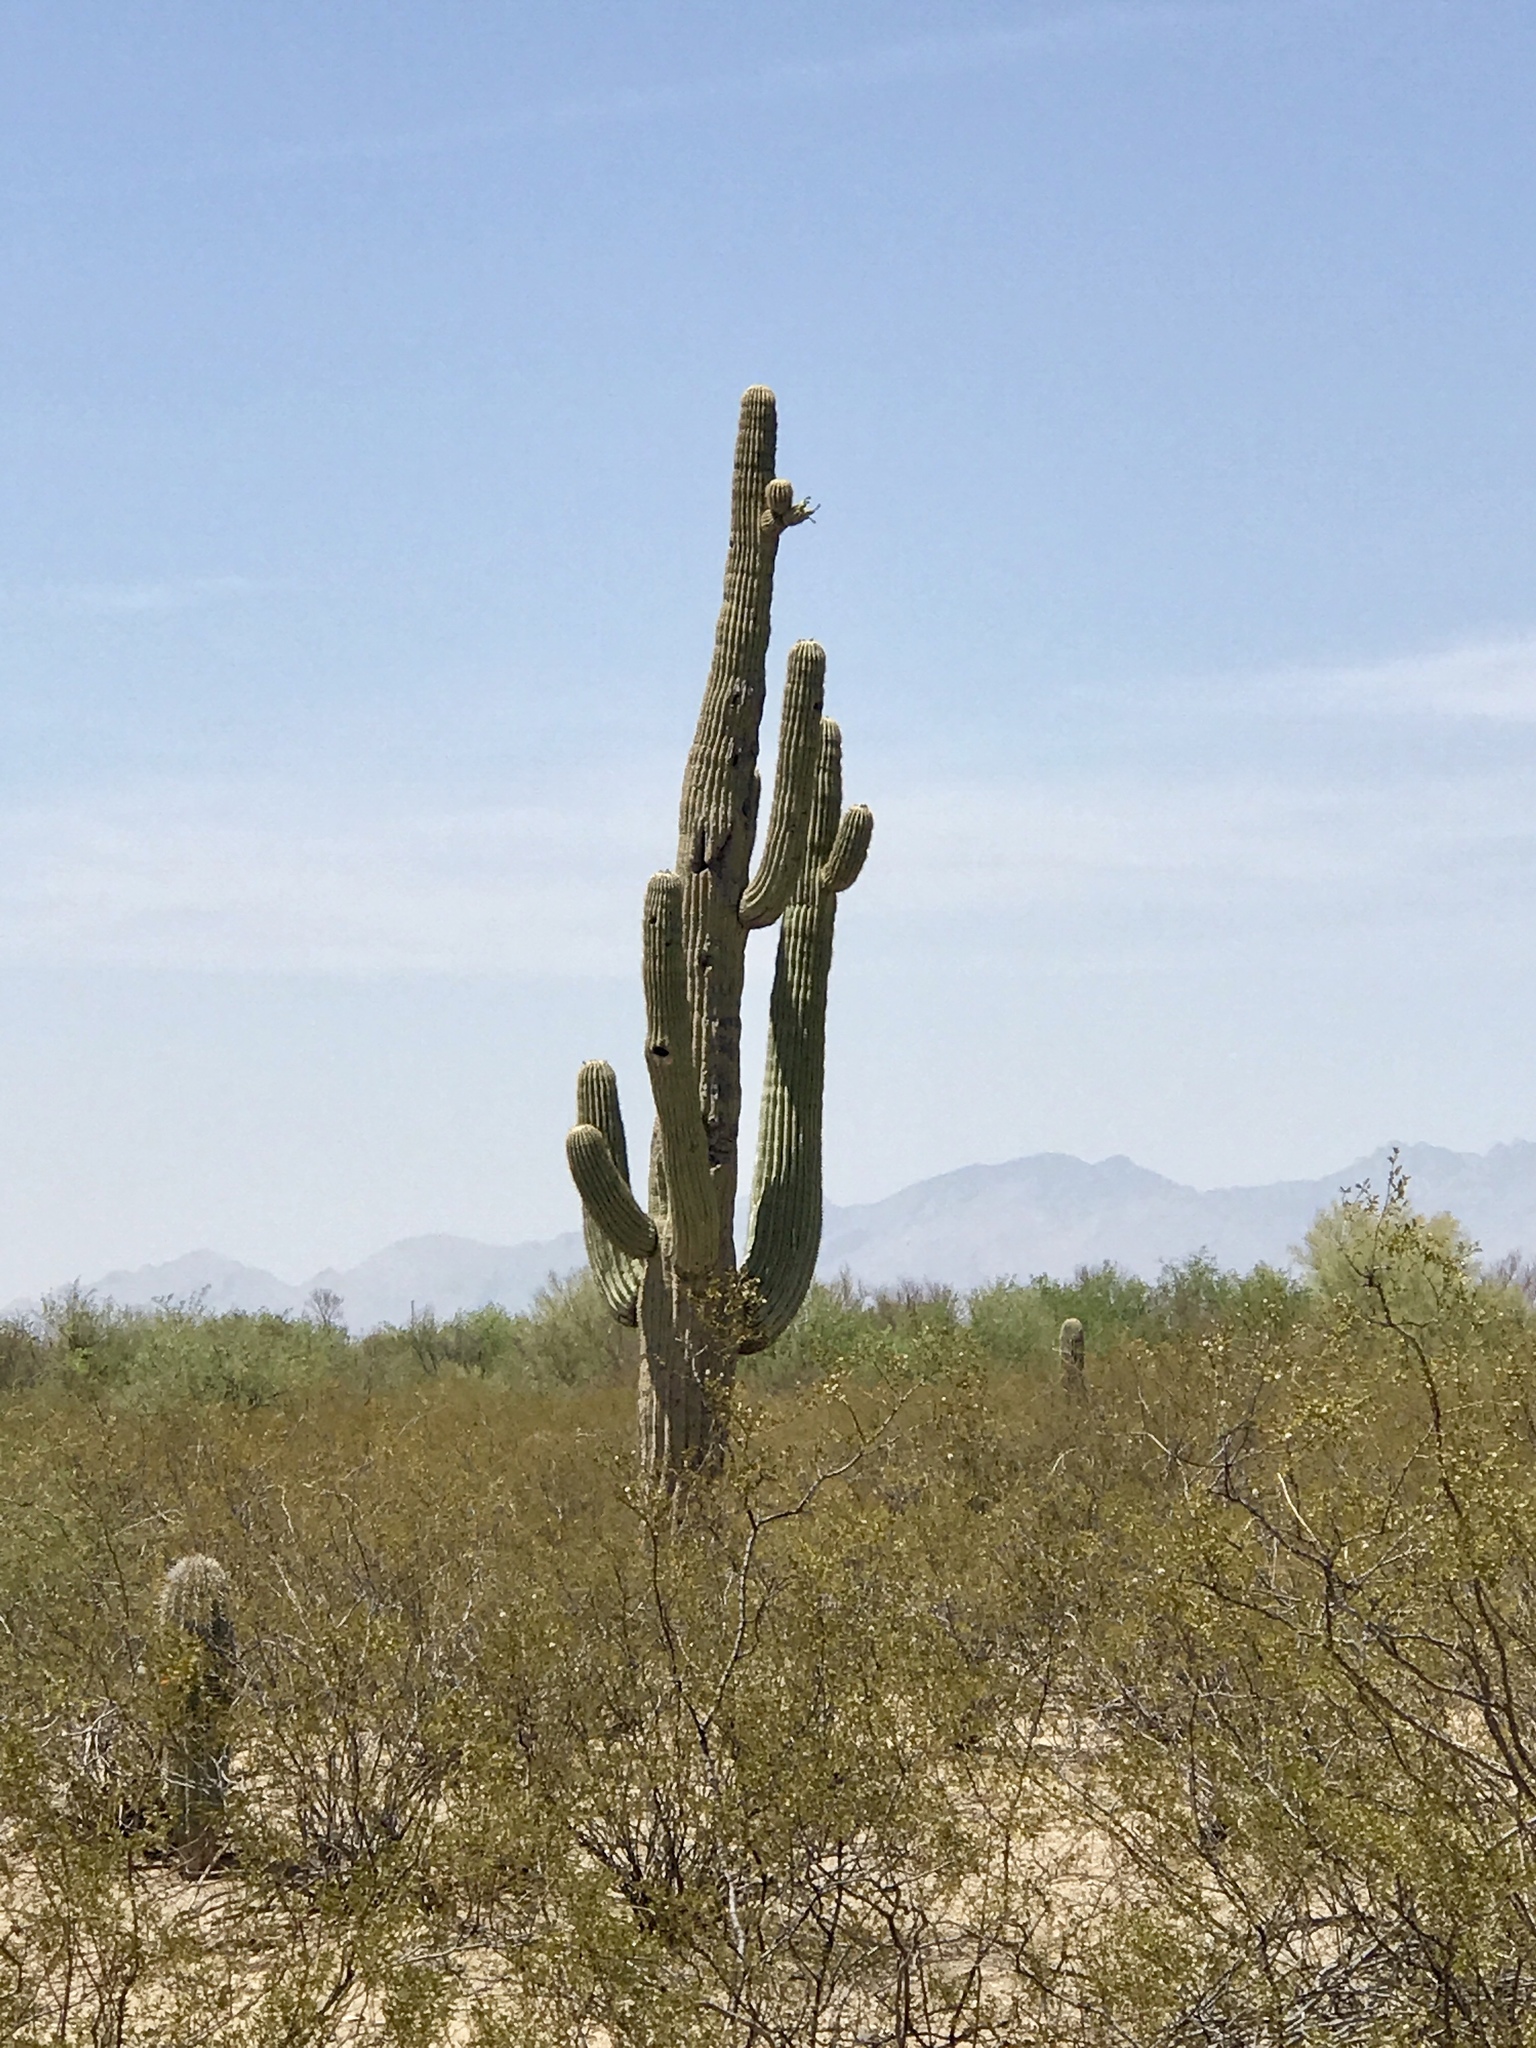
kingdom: Plantae
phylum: Tracheophyta
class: Magnoliopsida
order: Caryophyllales
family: Cactaceae
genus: Carnegiea
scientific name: Carnegiea gigantea
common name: Saguaro
